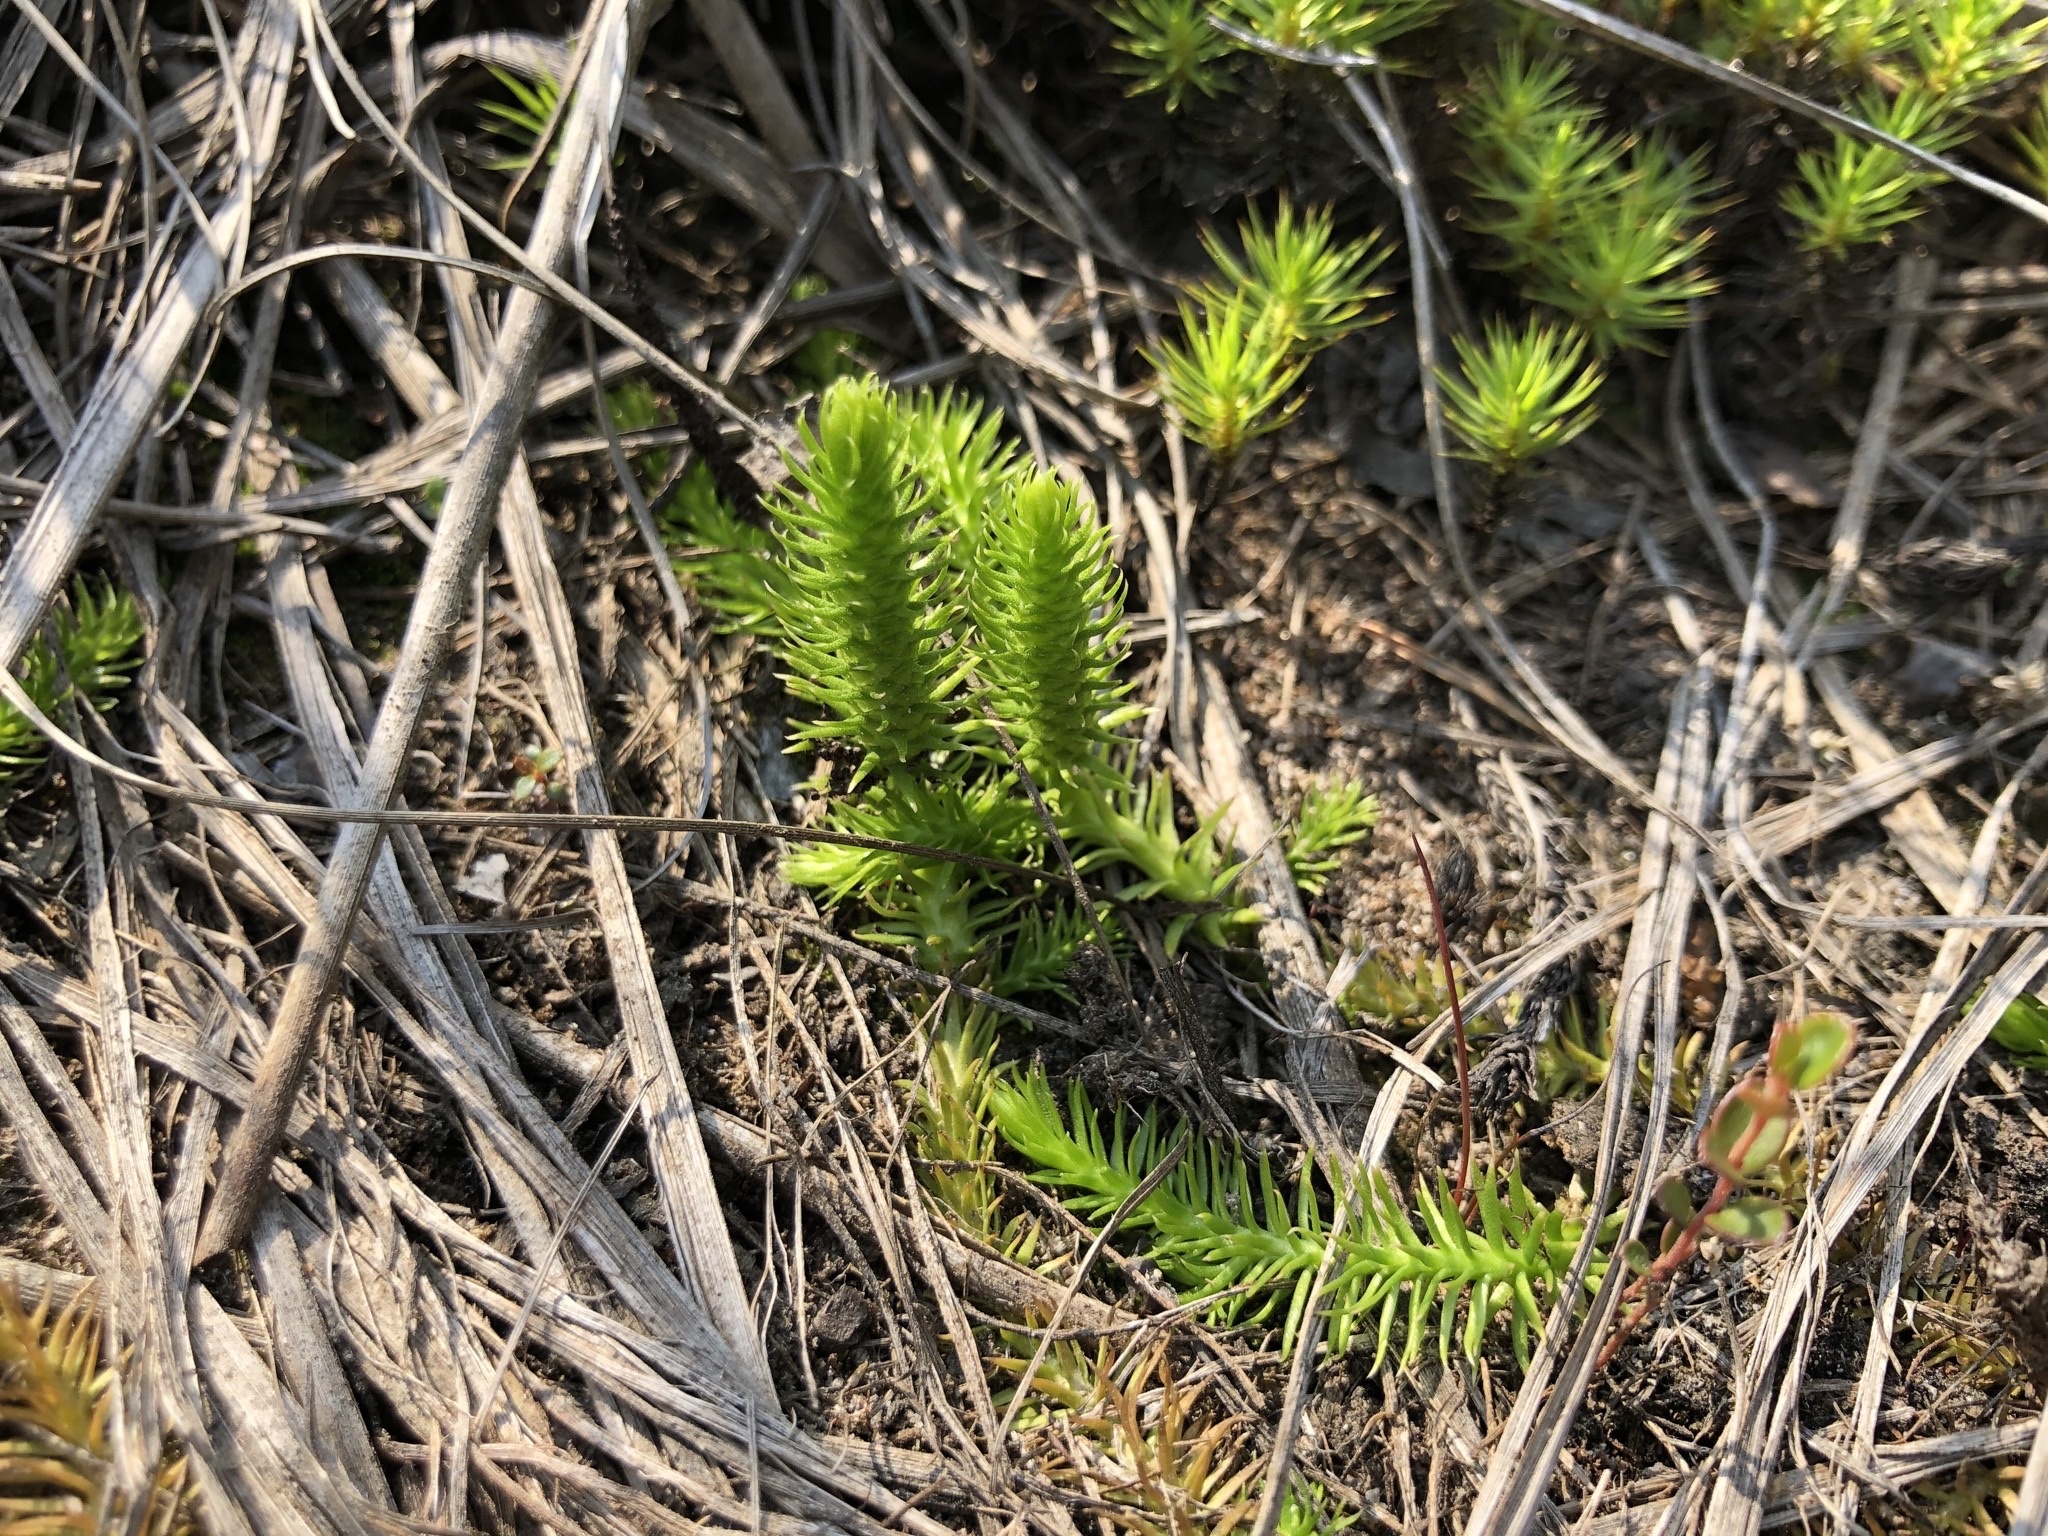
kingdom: Plantae
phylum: Tracheophyta
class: Lycopodiopsida
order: Lycopodiales
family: Lycopodiaceae
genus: Lycopodiella
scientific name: Lycopodiella inundata
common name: Marsh clubmoss
